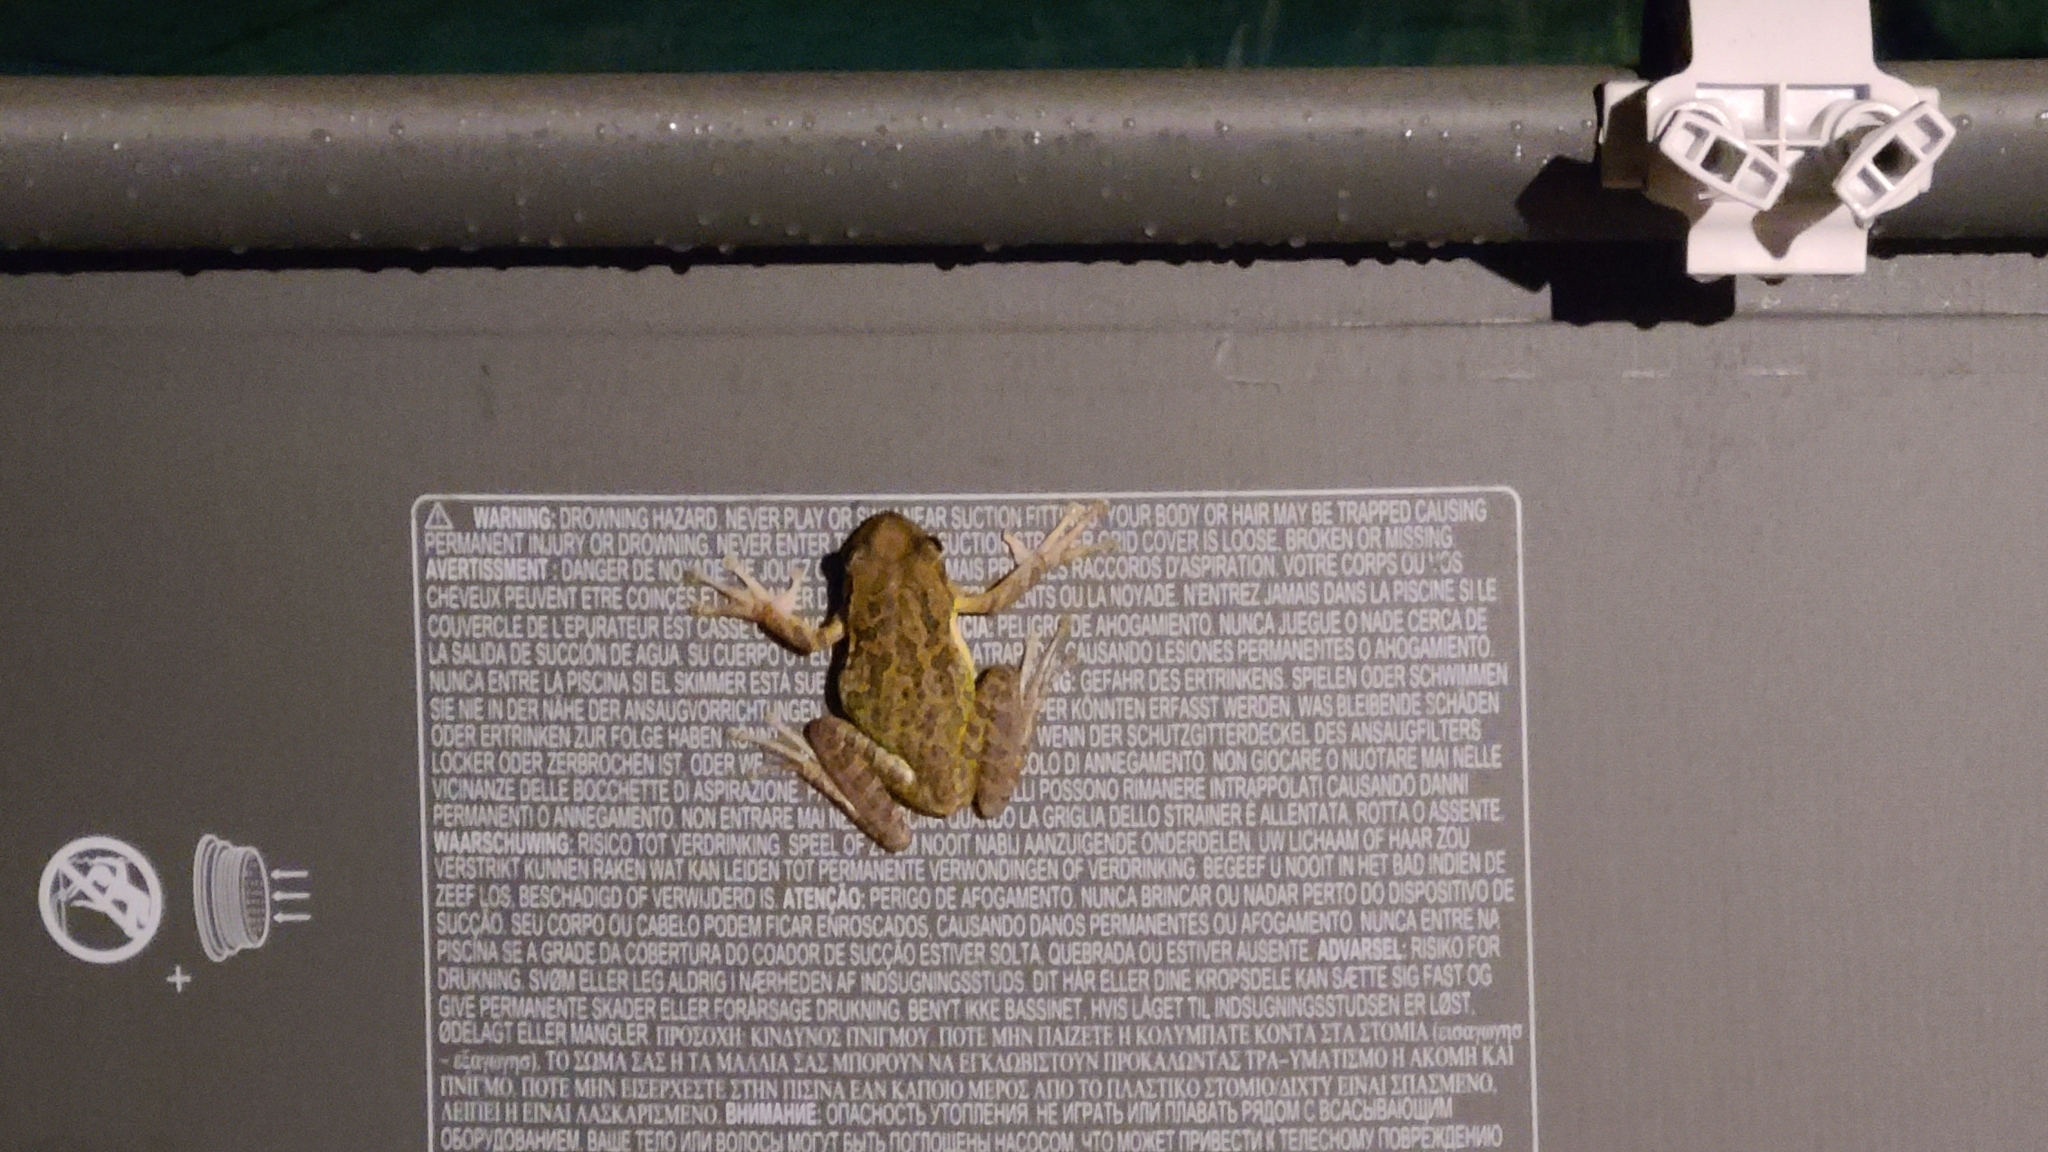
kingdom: Animalia
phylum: Chordata
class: Amphibia
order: Anura
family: Hylidae
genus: Osteopilus
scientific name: Osteopilus septentrionalis
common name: Cuban treefrog
